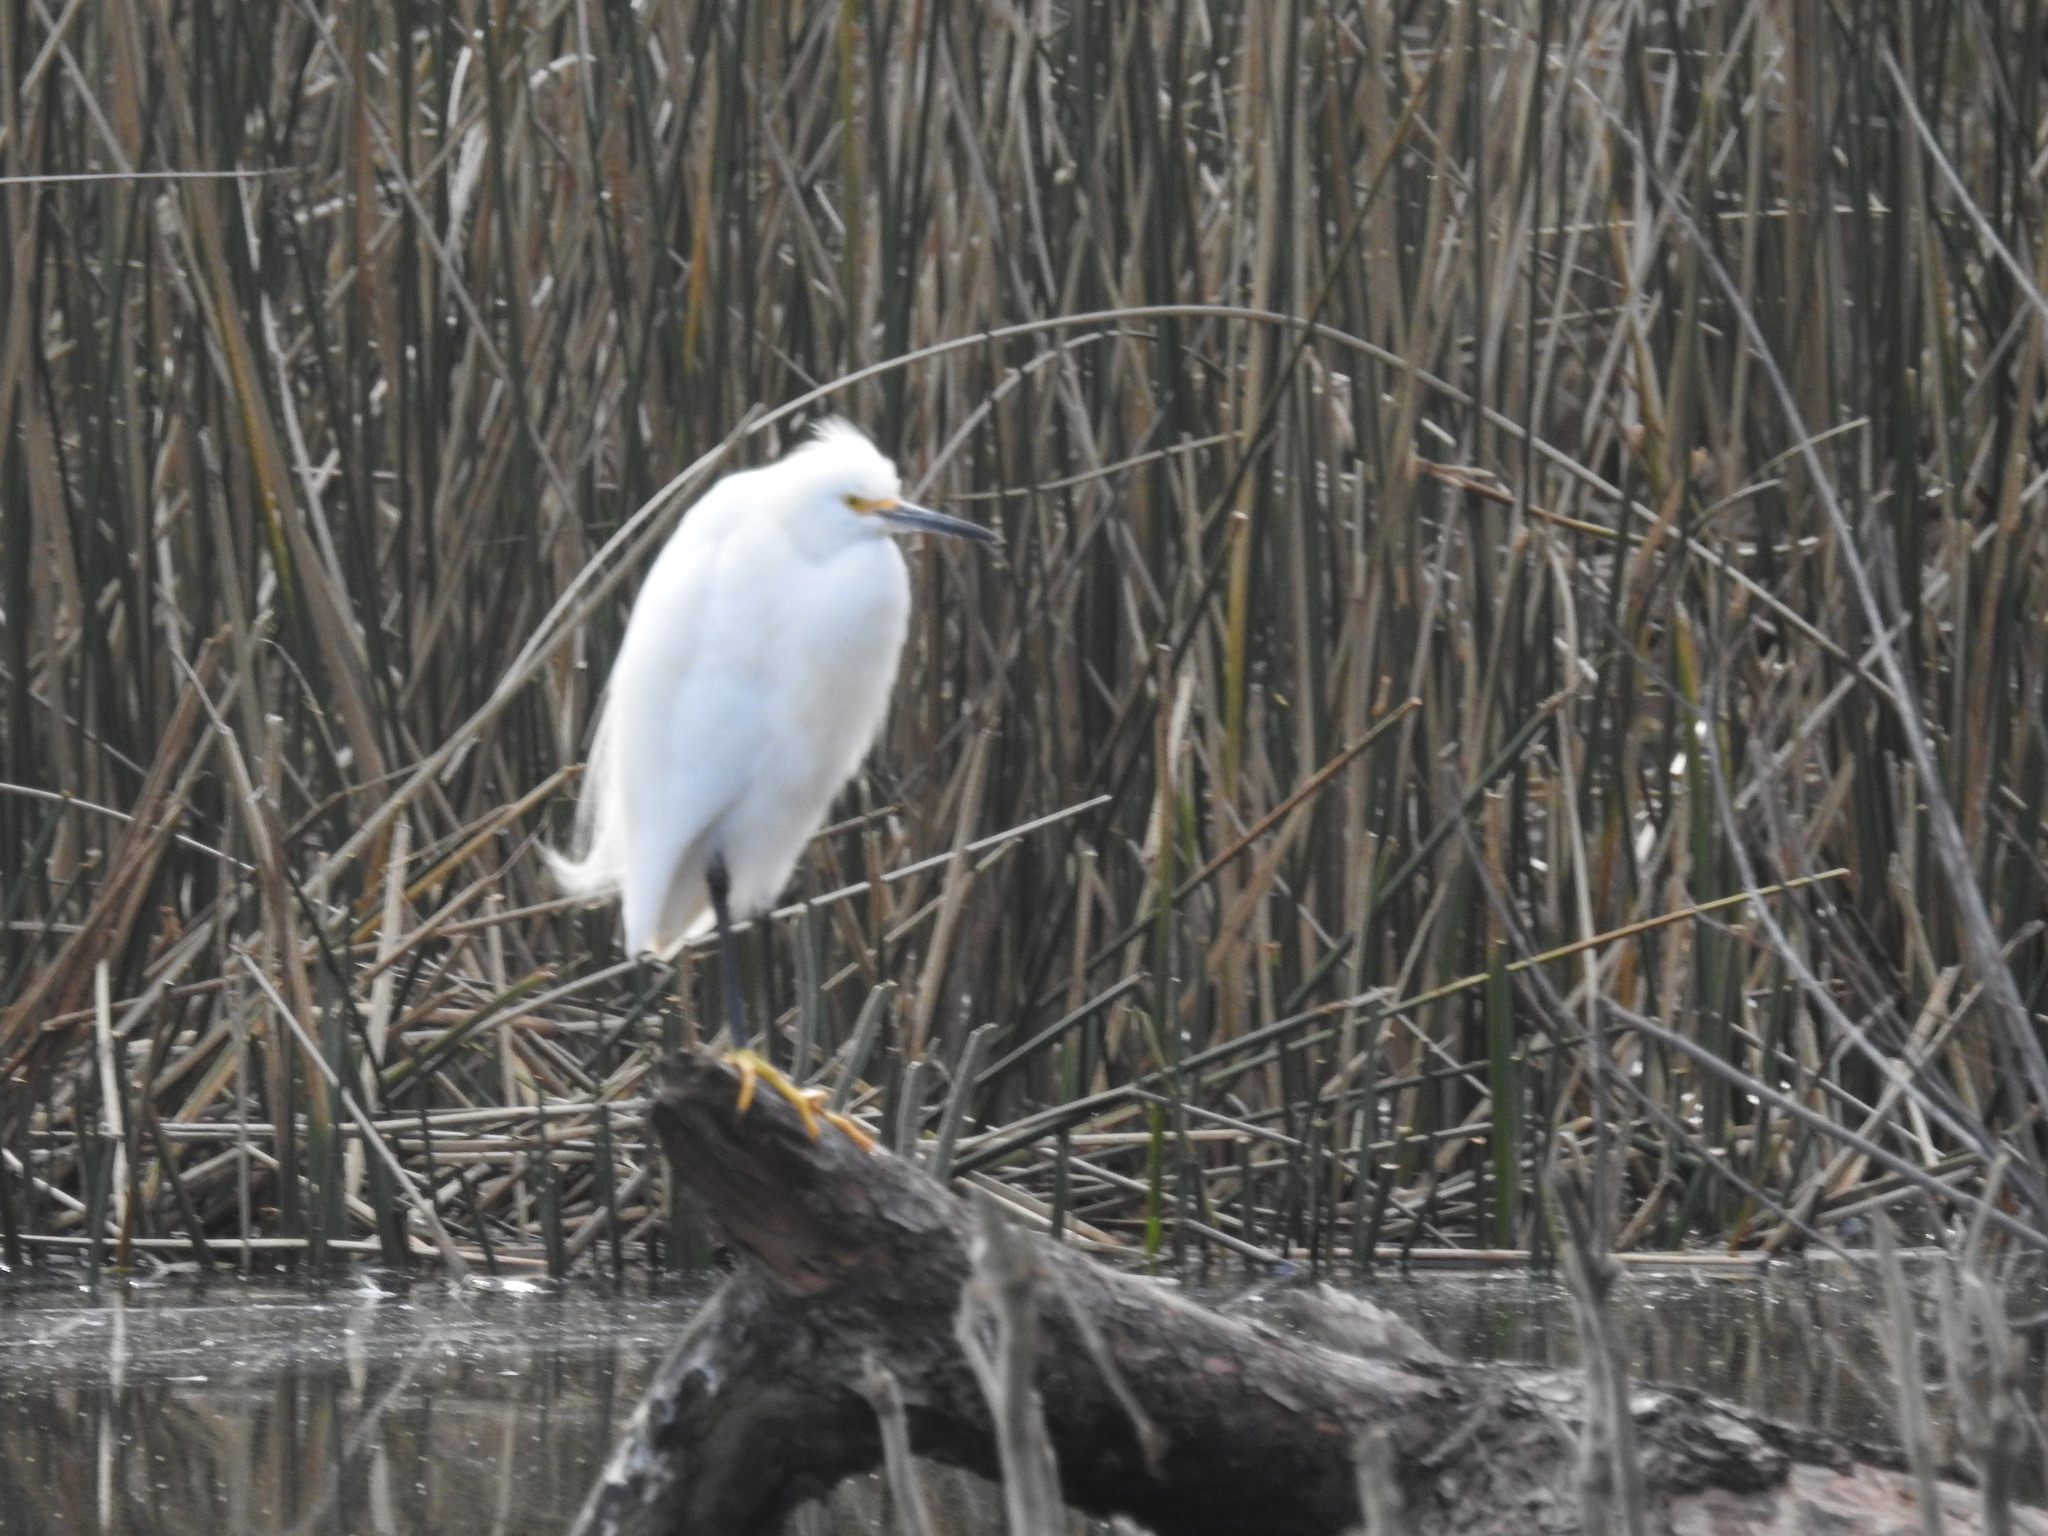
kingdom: Animalia
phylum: Chordata
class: Aves
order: Pelecaniformes
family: Ardeidae
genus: Egretta
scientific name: Egretta thula
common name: Snowy egret
